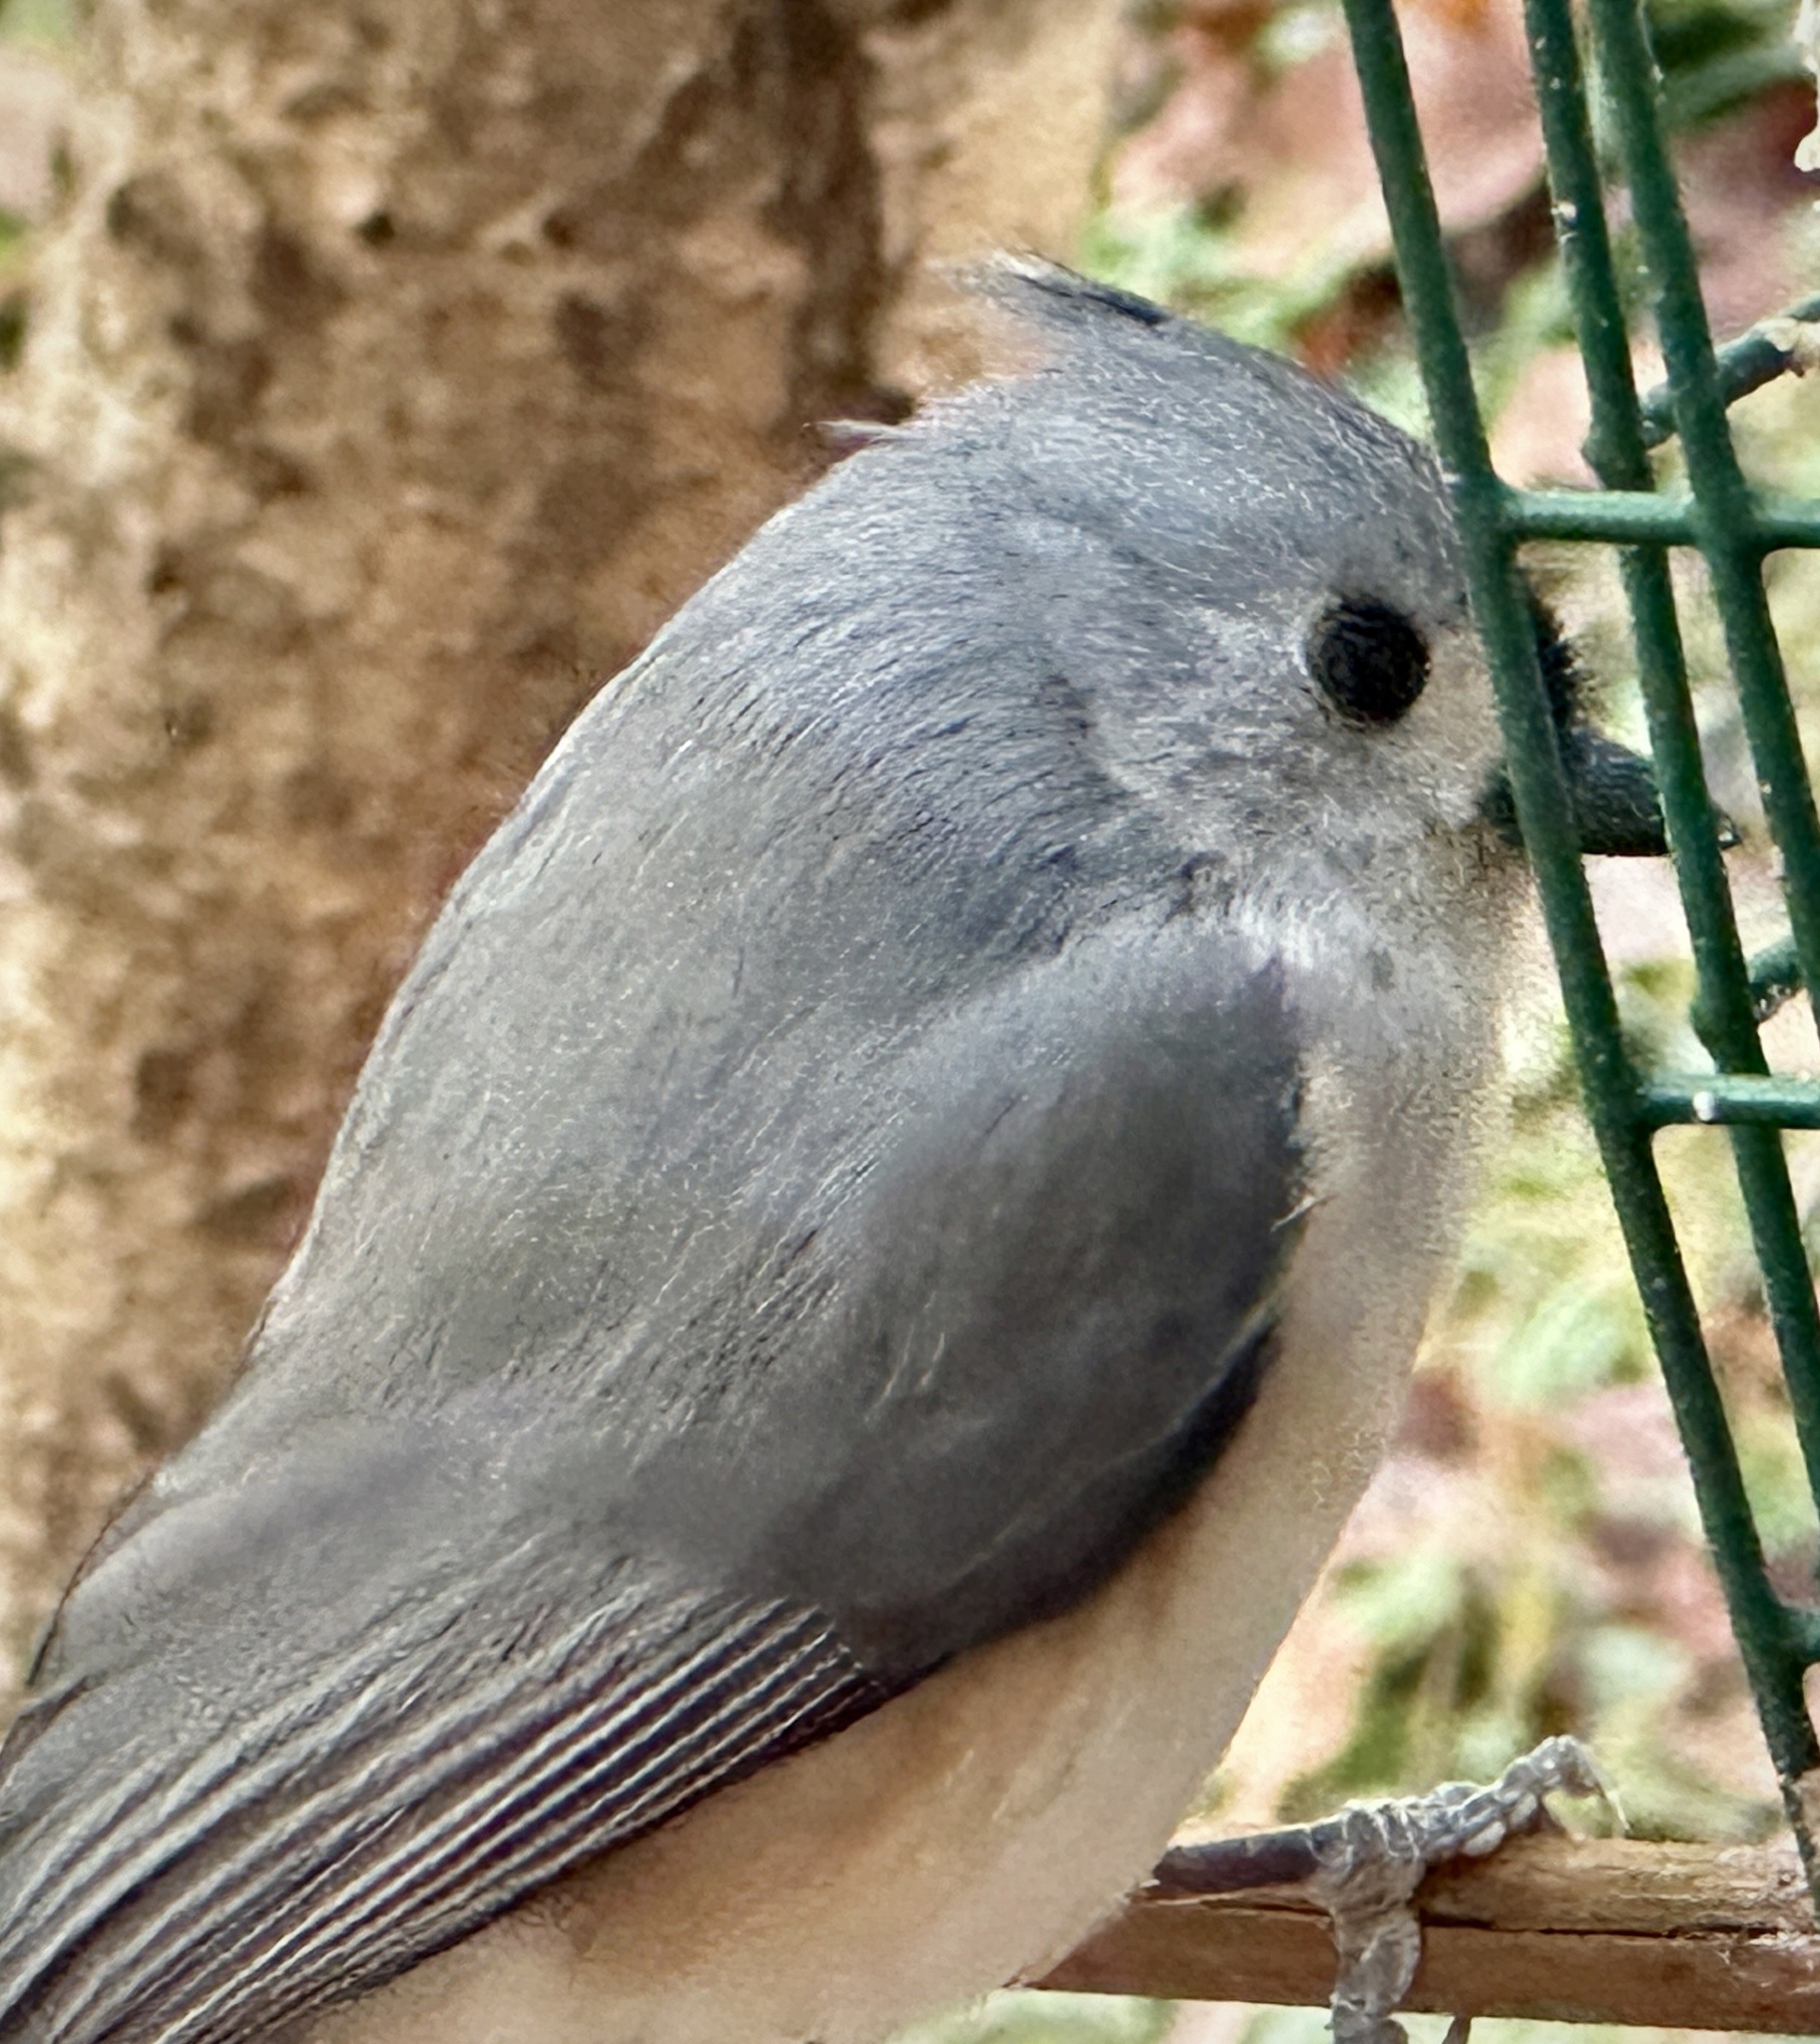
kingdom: Animalia
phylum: Chordata
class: Aves
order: Passeriformes
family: Paridae
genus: Baeolophus
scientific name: Baeolophus bicolor
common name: Tufted titmouse
